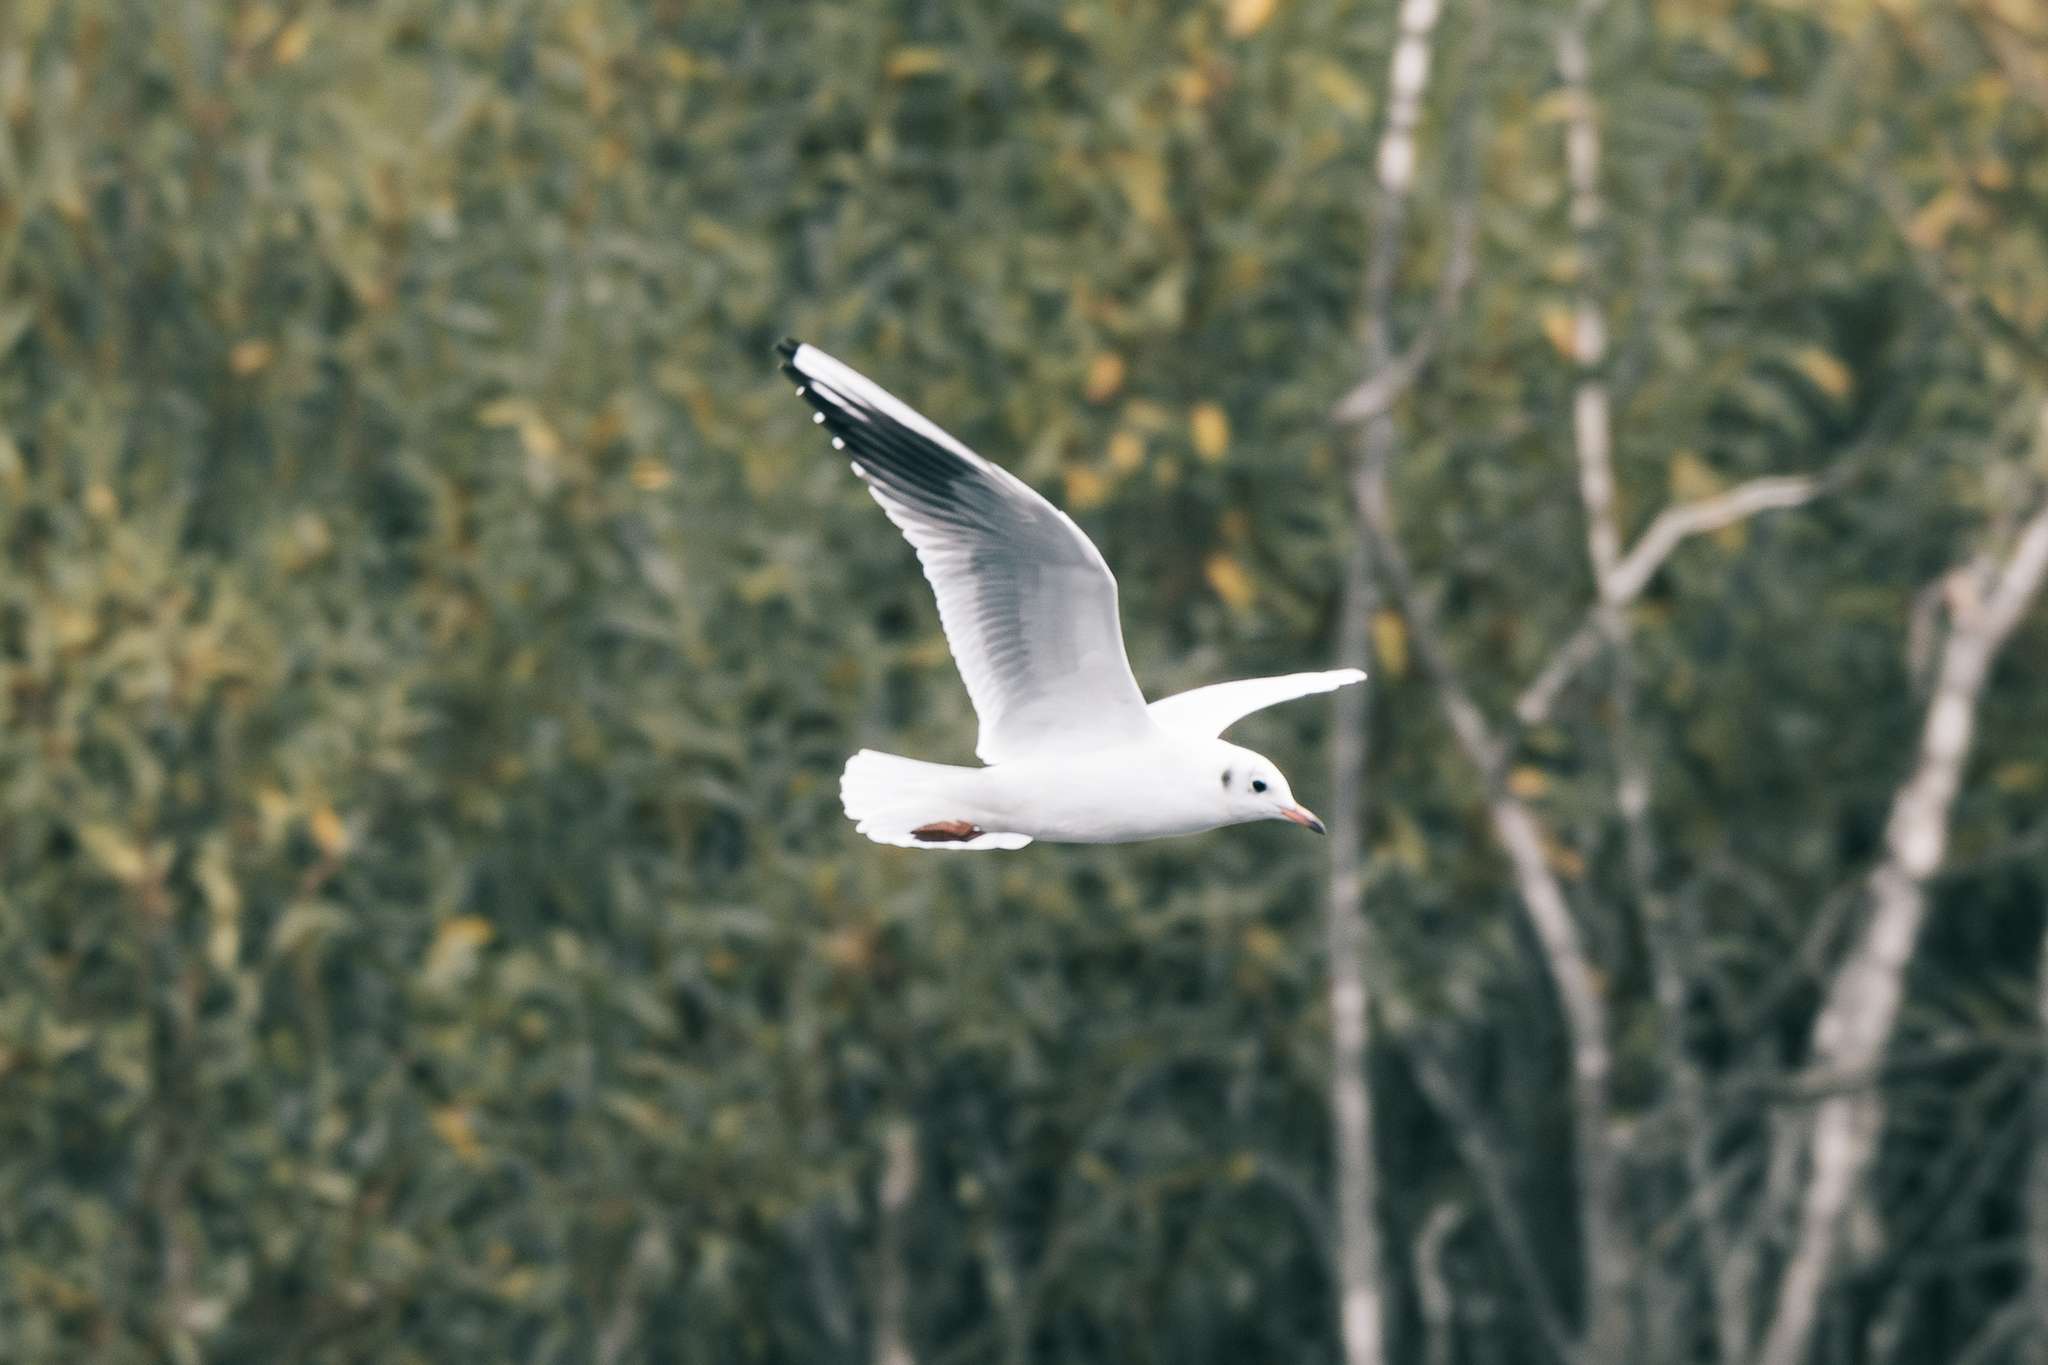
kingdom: Animalia
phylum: Chordata
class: Aves
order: Charadriiformes
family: Laridae
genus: Chroicocephalus
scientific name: Chroicocephalus ridibundus
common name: Black-headed gull
